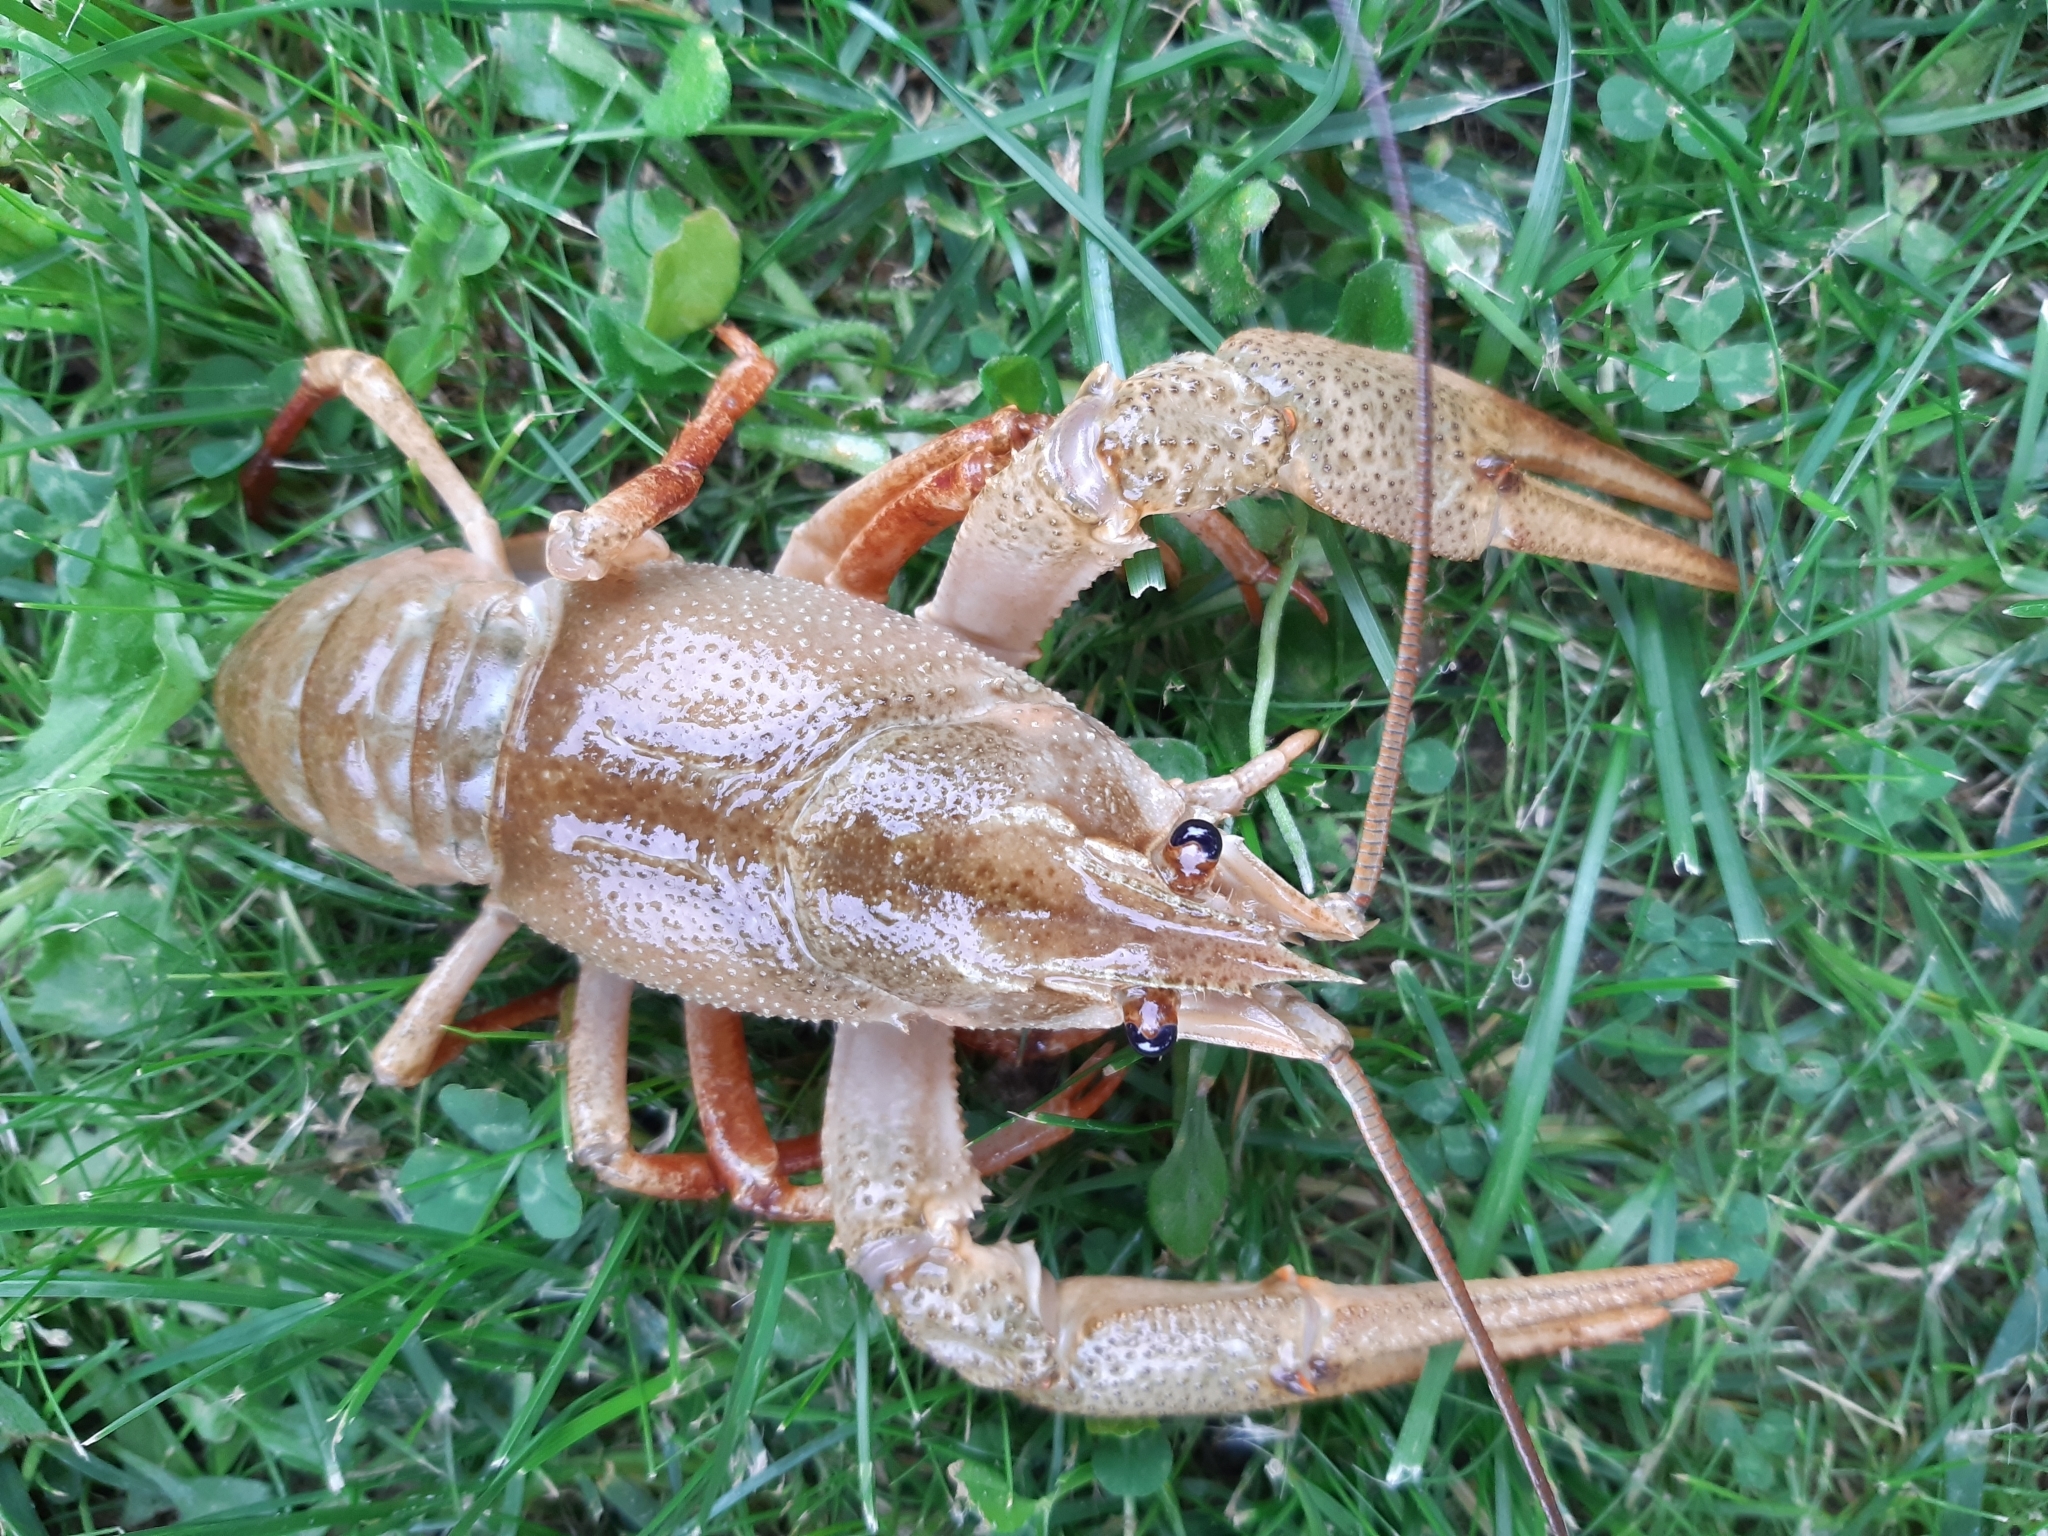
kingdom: Animalia
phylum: Arthropoda
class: Malacostraca
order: Decapoda
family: Astacidae
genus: Pontastacus
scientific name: Pontastacus leptodactylus
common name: Danube crayfish
